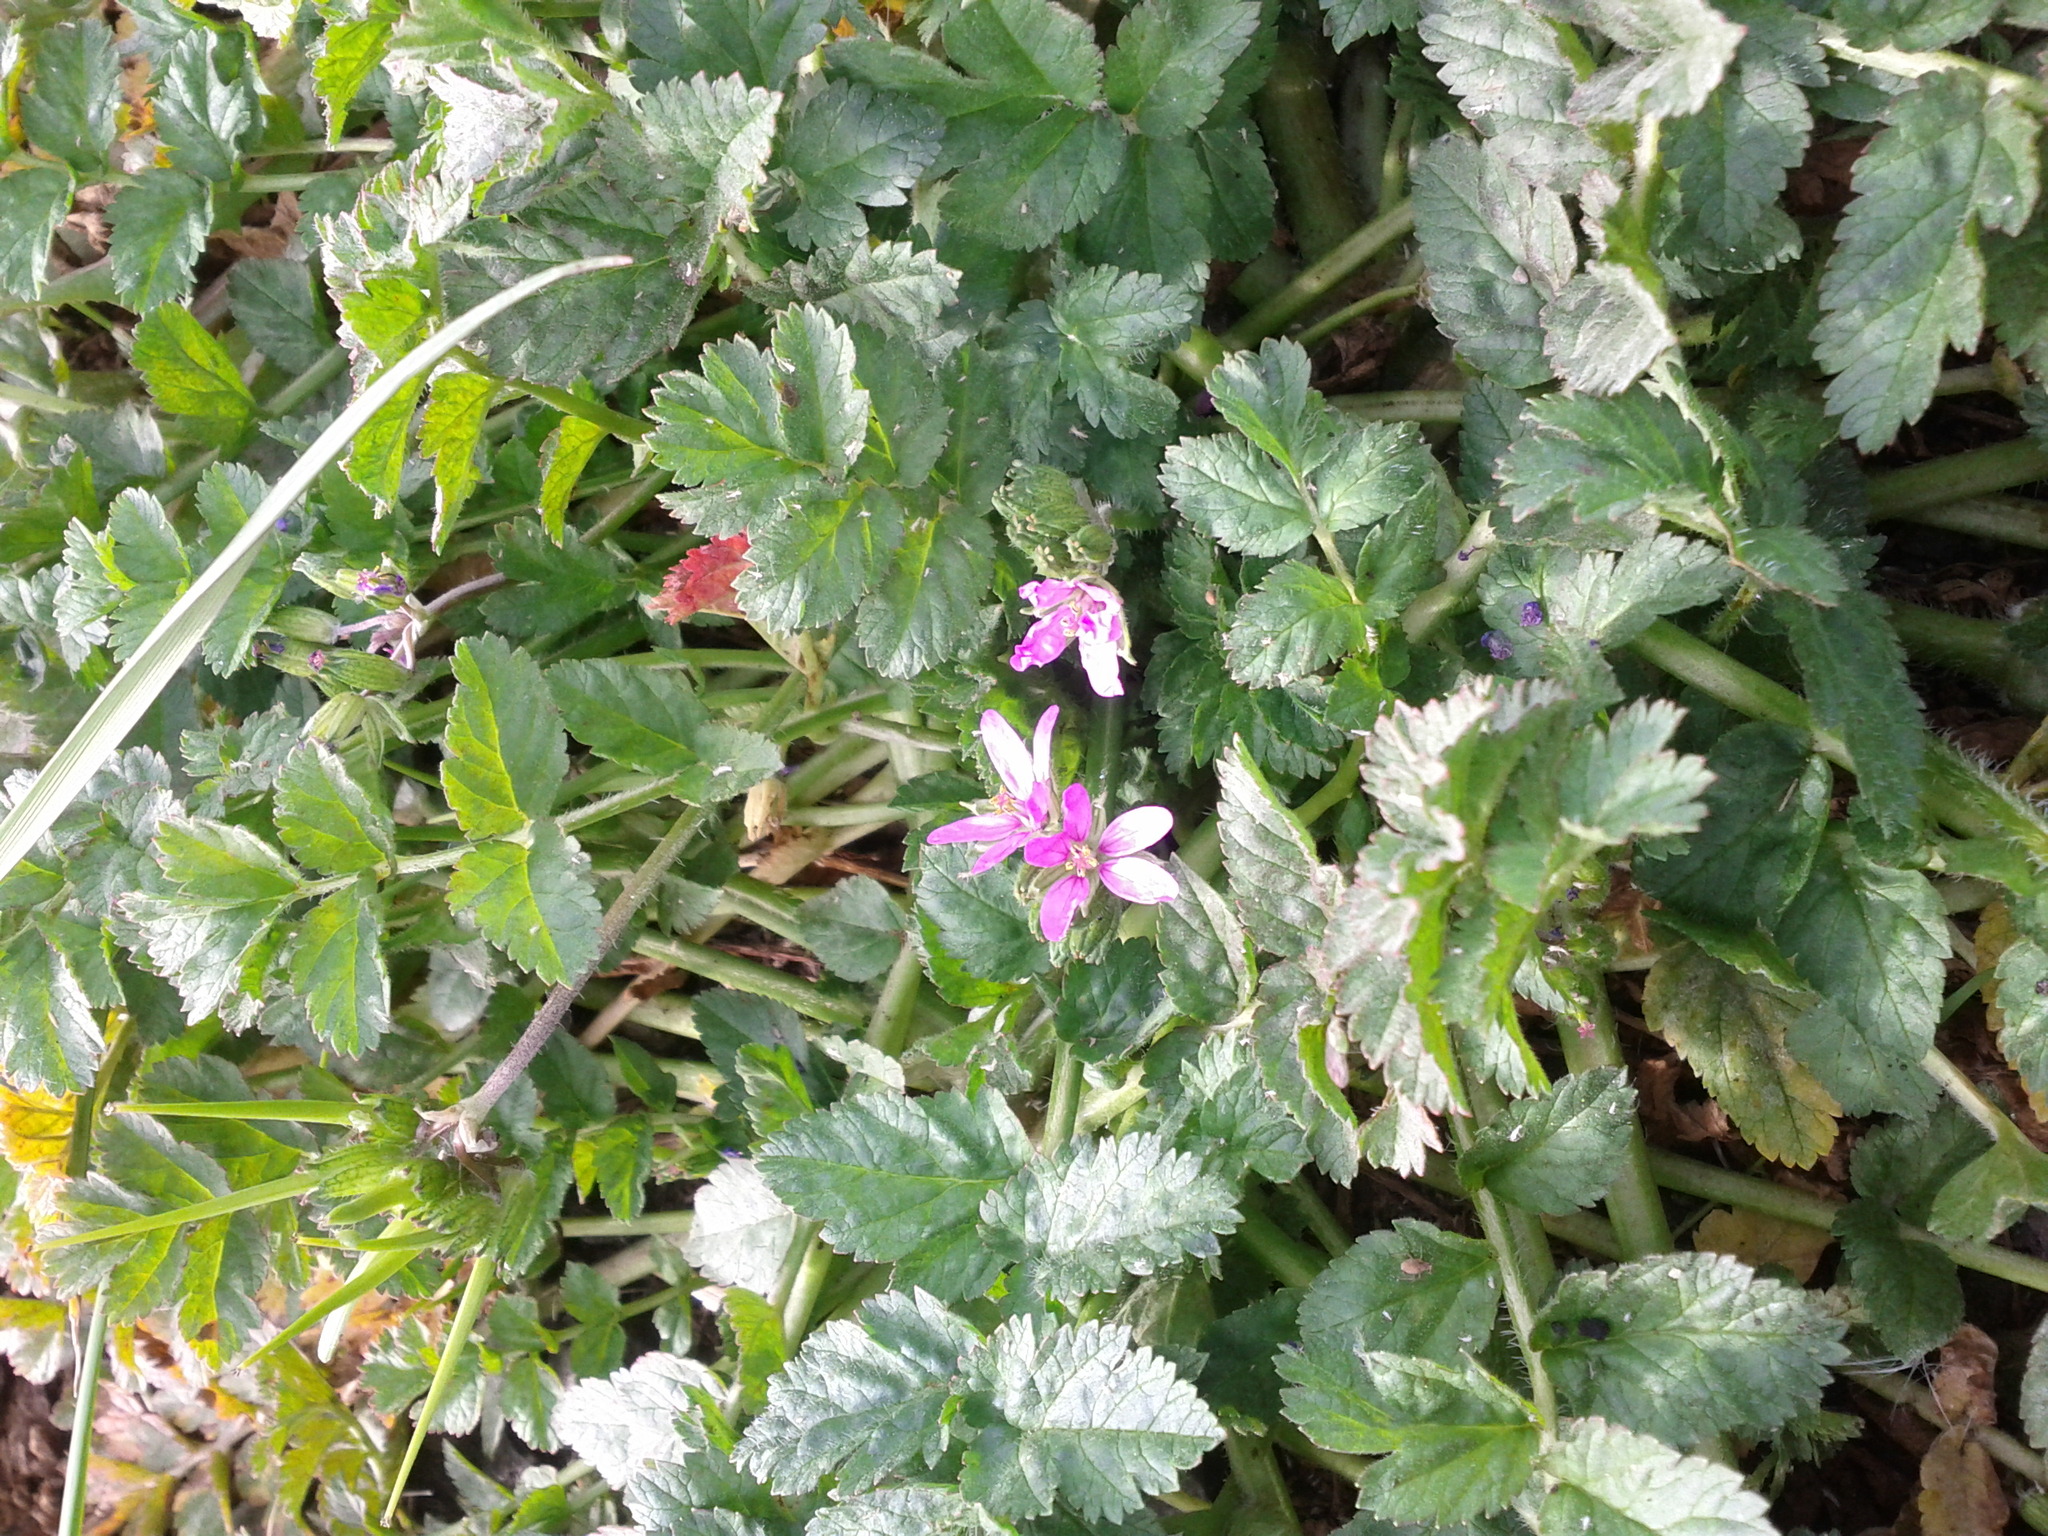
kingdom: Plantae
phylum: Tracheophyta
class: Magnoliopsida
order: Geraniales
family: Geraniaceae
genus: Erodium
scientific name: Erodium moschatum
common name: Musk stork's-bill
